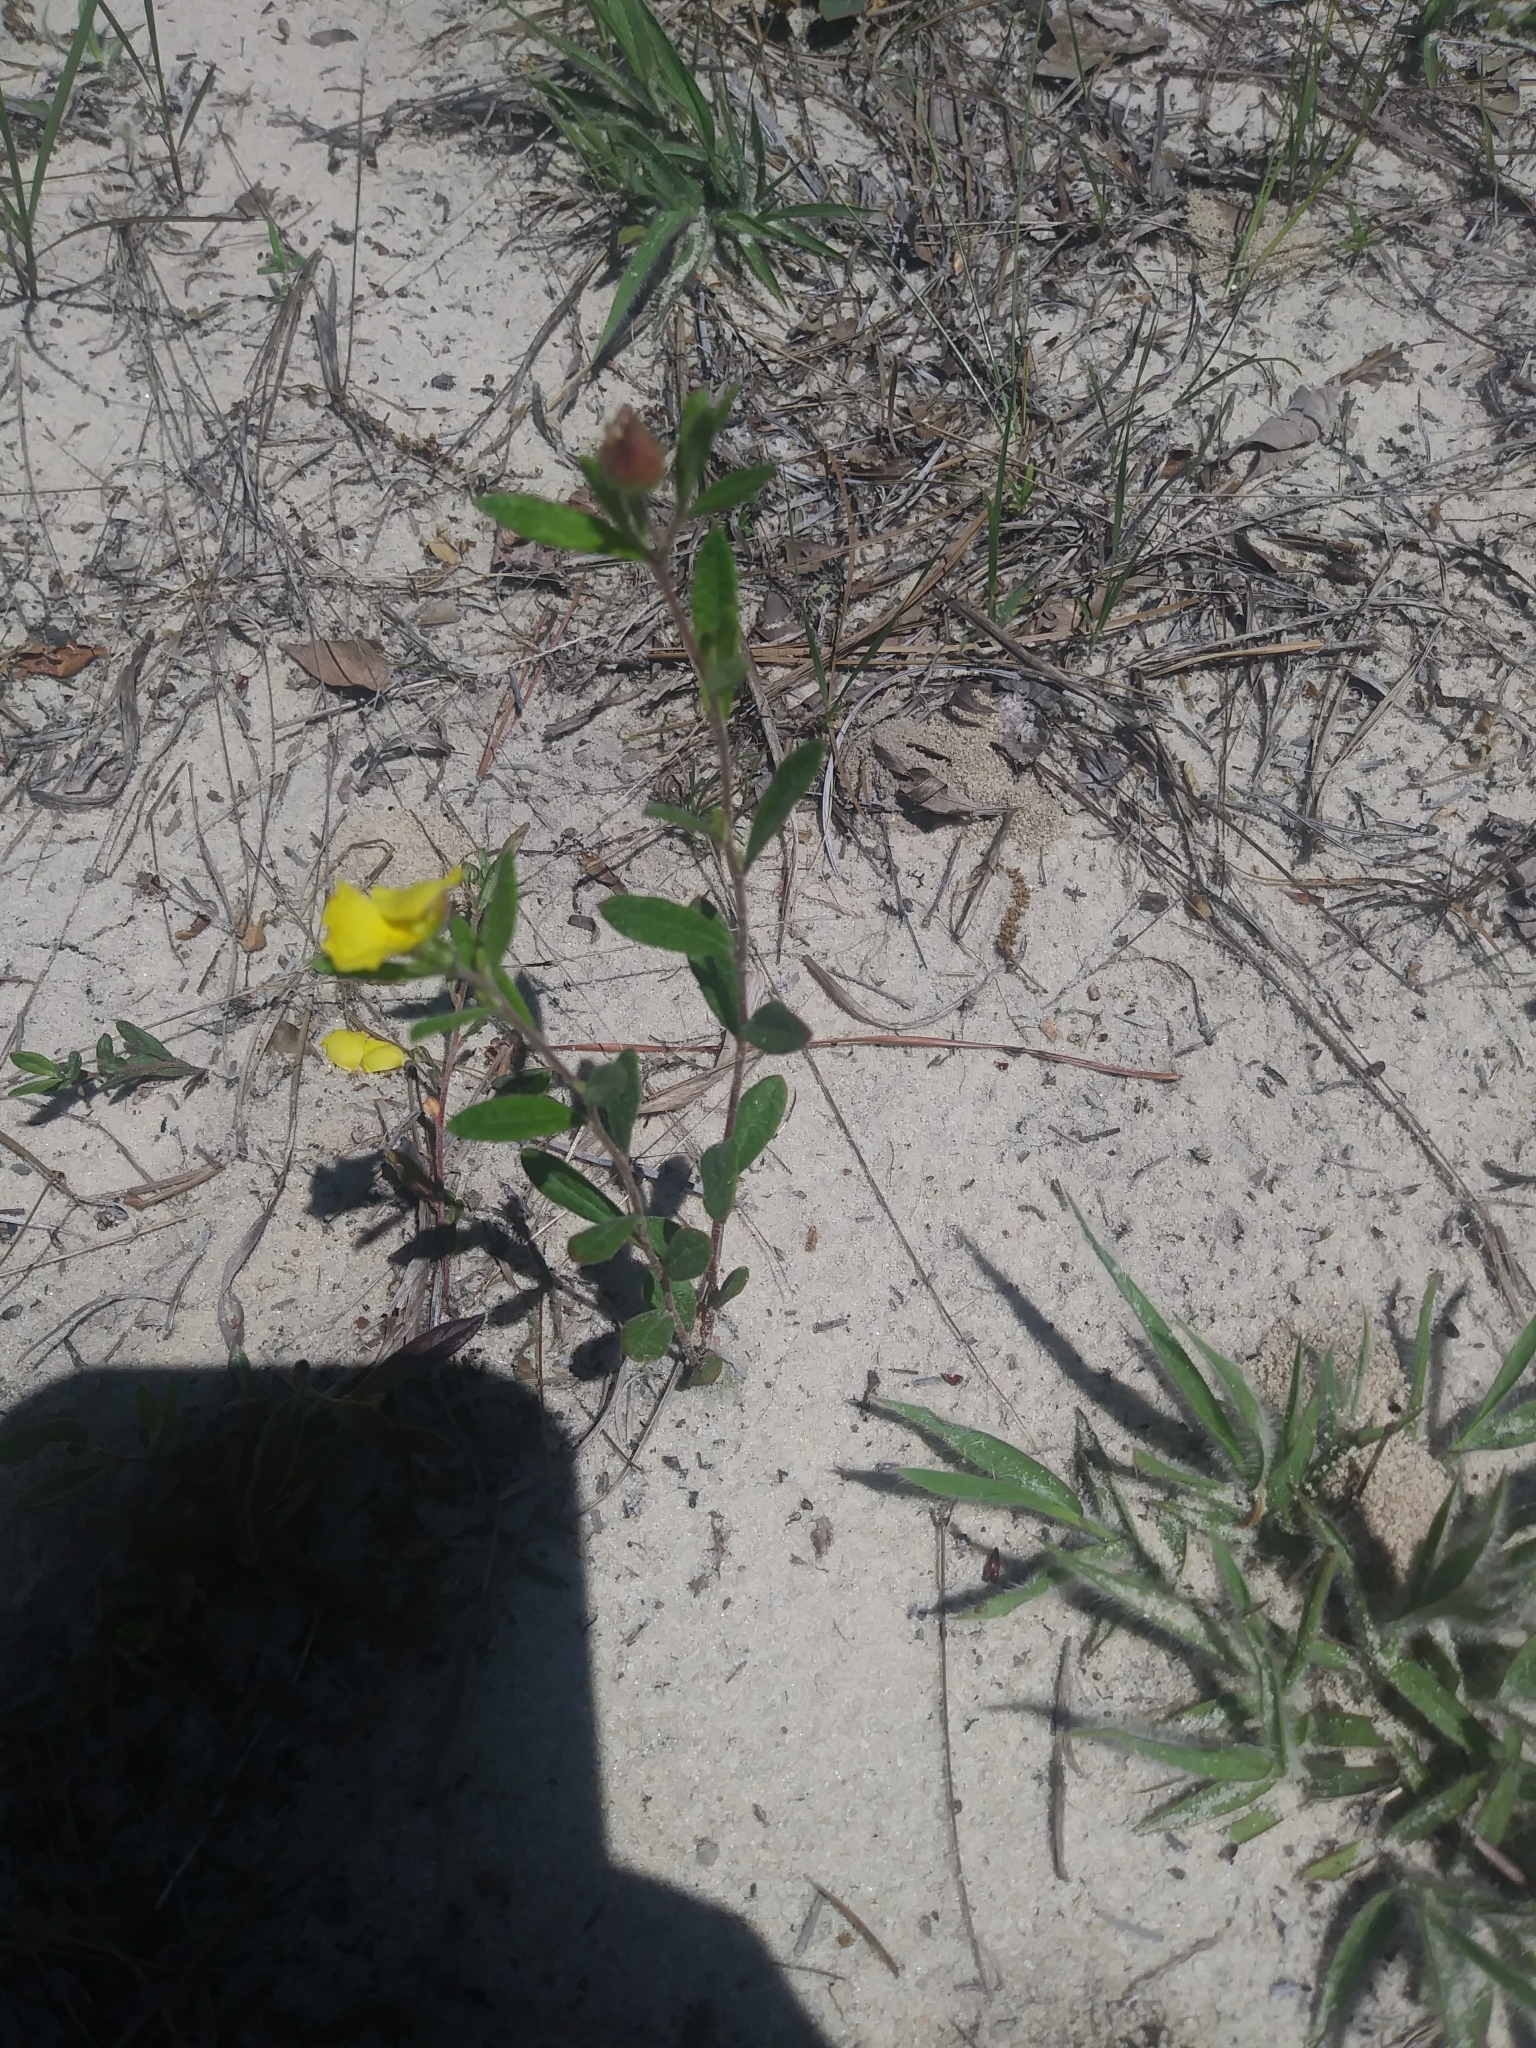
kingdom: Plantae
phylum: Tracheophyta
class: Magnoliopsida
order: Malvales
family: Cistaceae
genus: Crocanthemum
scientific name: Crocanthemum canadense
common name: Canada frostweed
